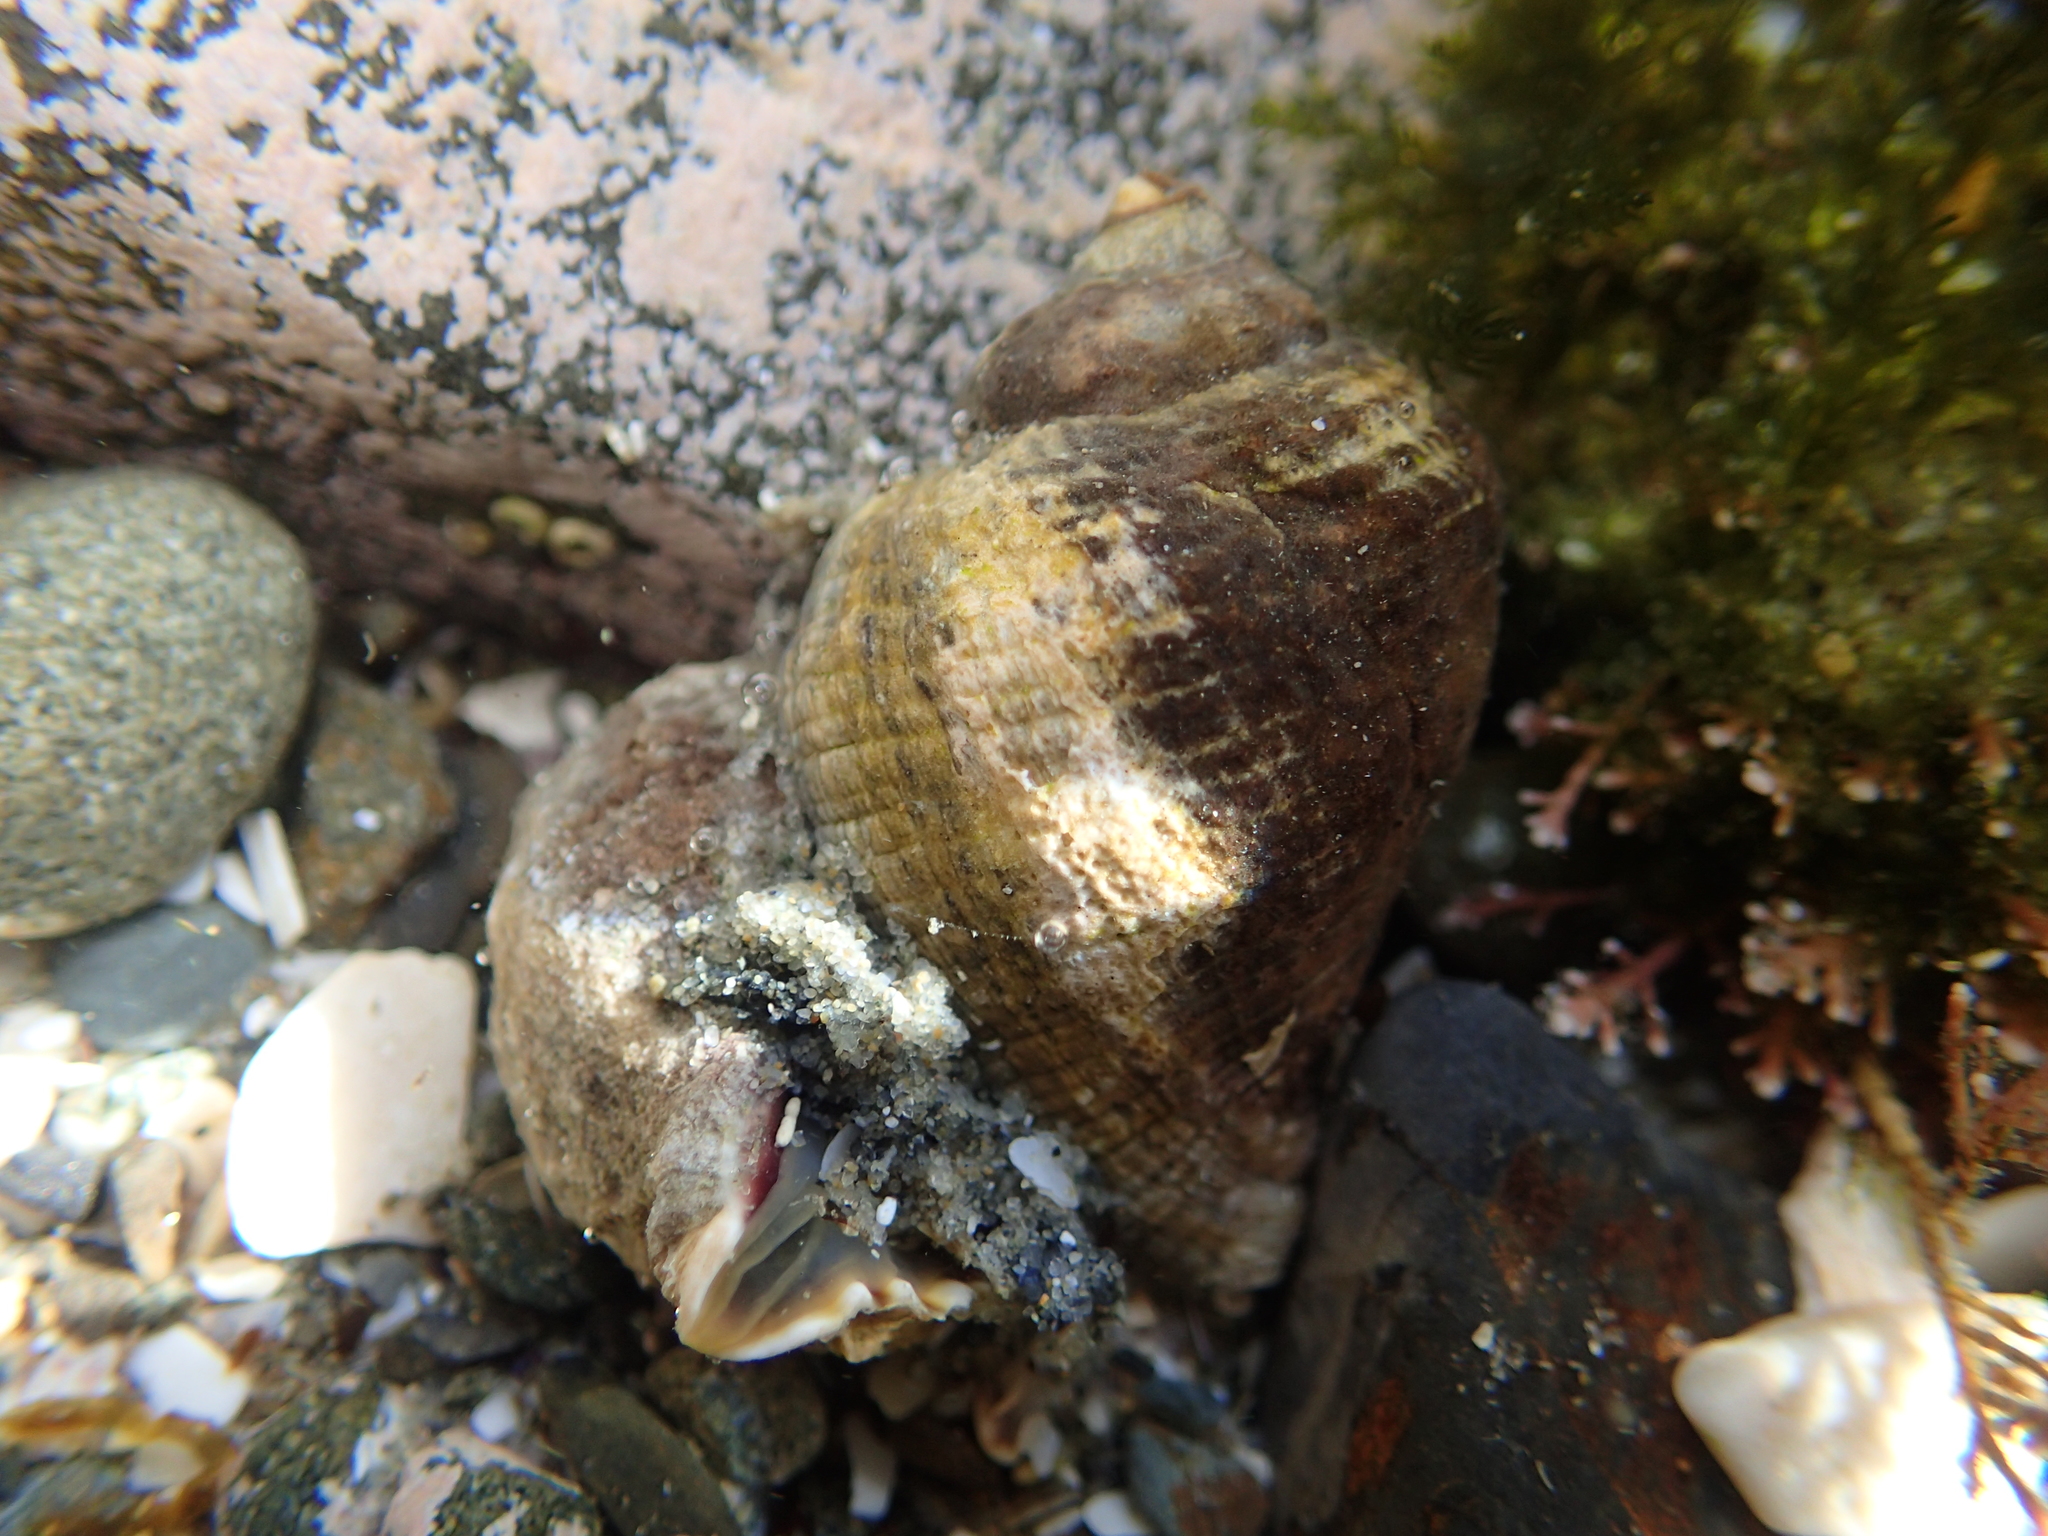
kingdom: Animalia
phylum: Mollusca
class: Gastropoda
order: Neogastropoda
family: Muricidae
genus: Haustrum
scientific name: Haustrum haustorium
